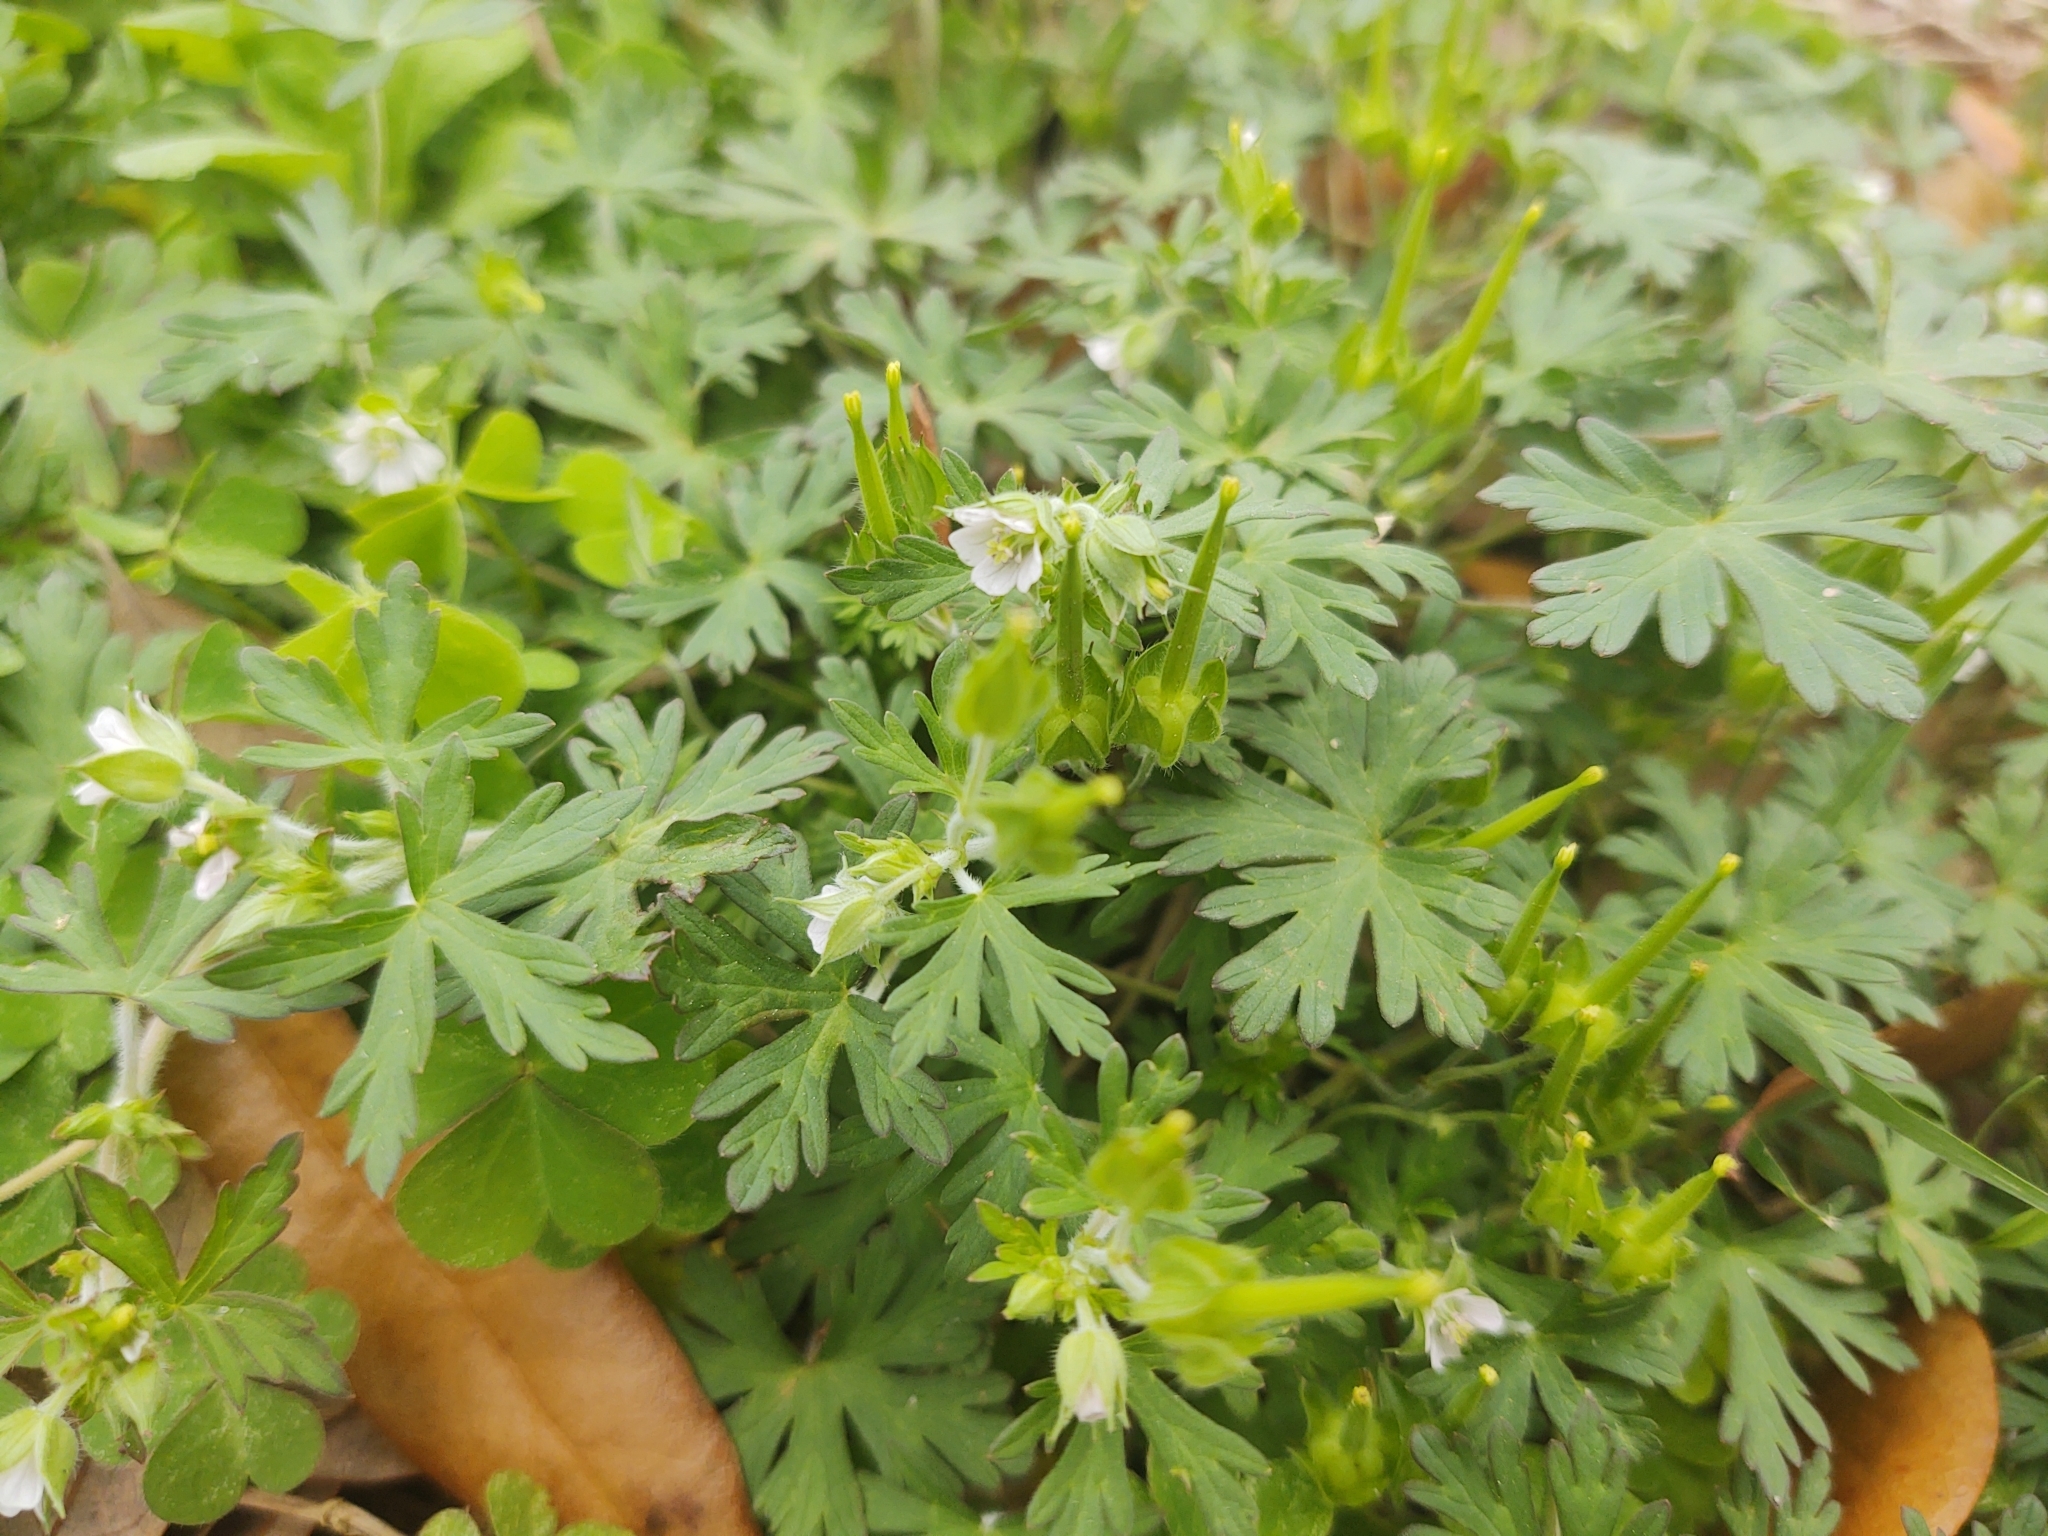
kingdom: Plantae
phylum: Tracheophyta
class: Magnoliopsida
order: Geraniales
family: Geraniaceae
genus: Geranium
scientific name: Geranium carolinianum
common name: Carolina crane's-bill
